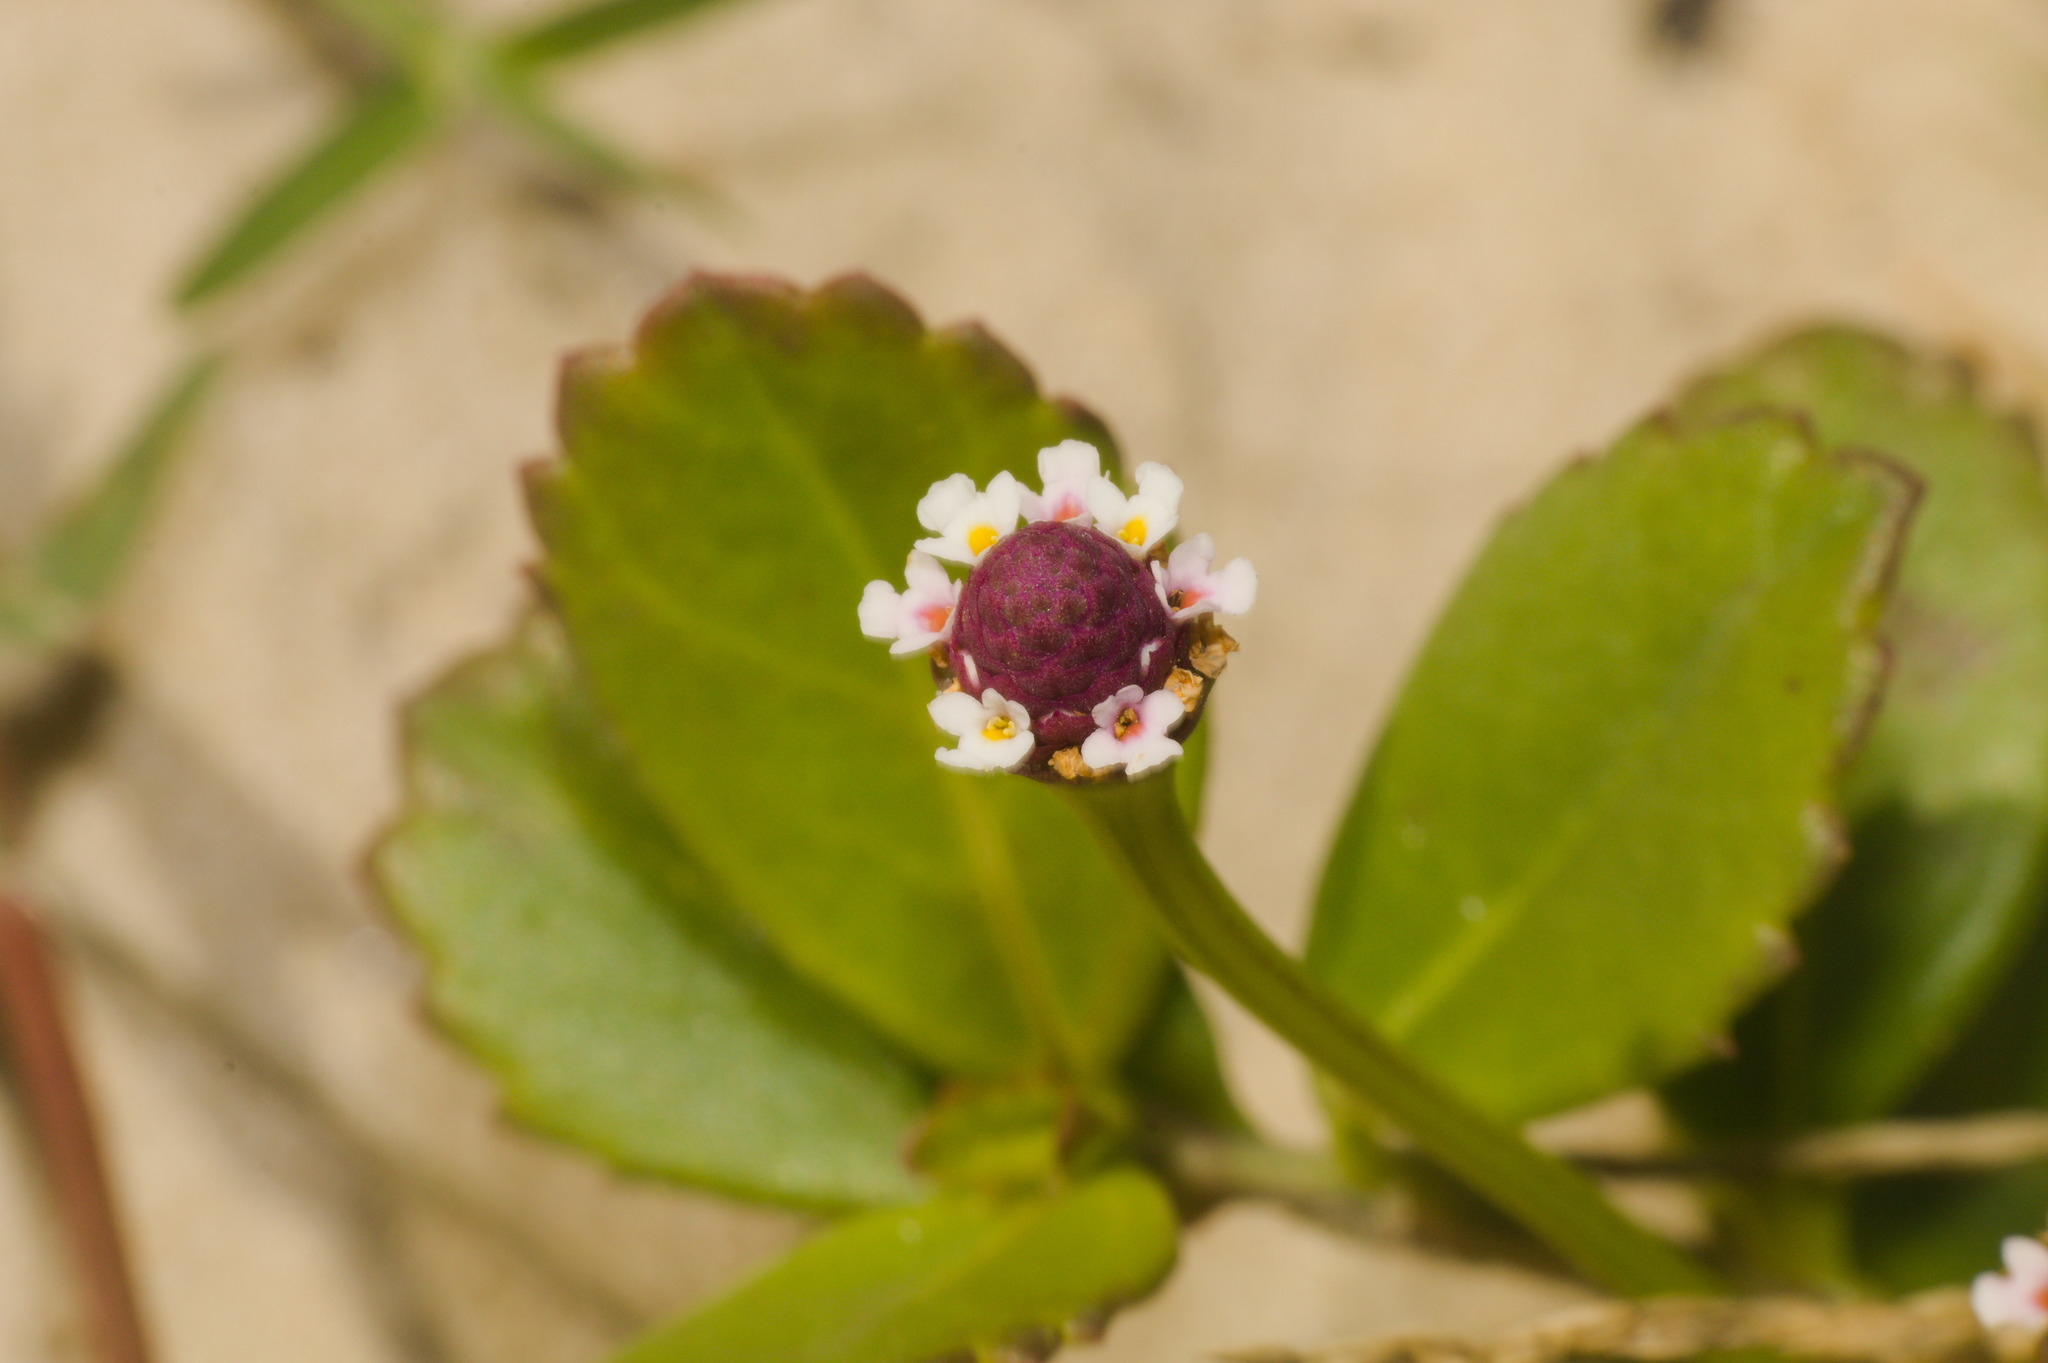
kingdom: Plantae
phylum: Tracheophyta
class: Magnoliopsida
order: Lamiales
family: Verbenaceae
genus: Phyla
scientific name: Phyla nodiflora
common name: Frogfruit
